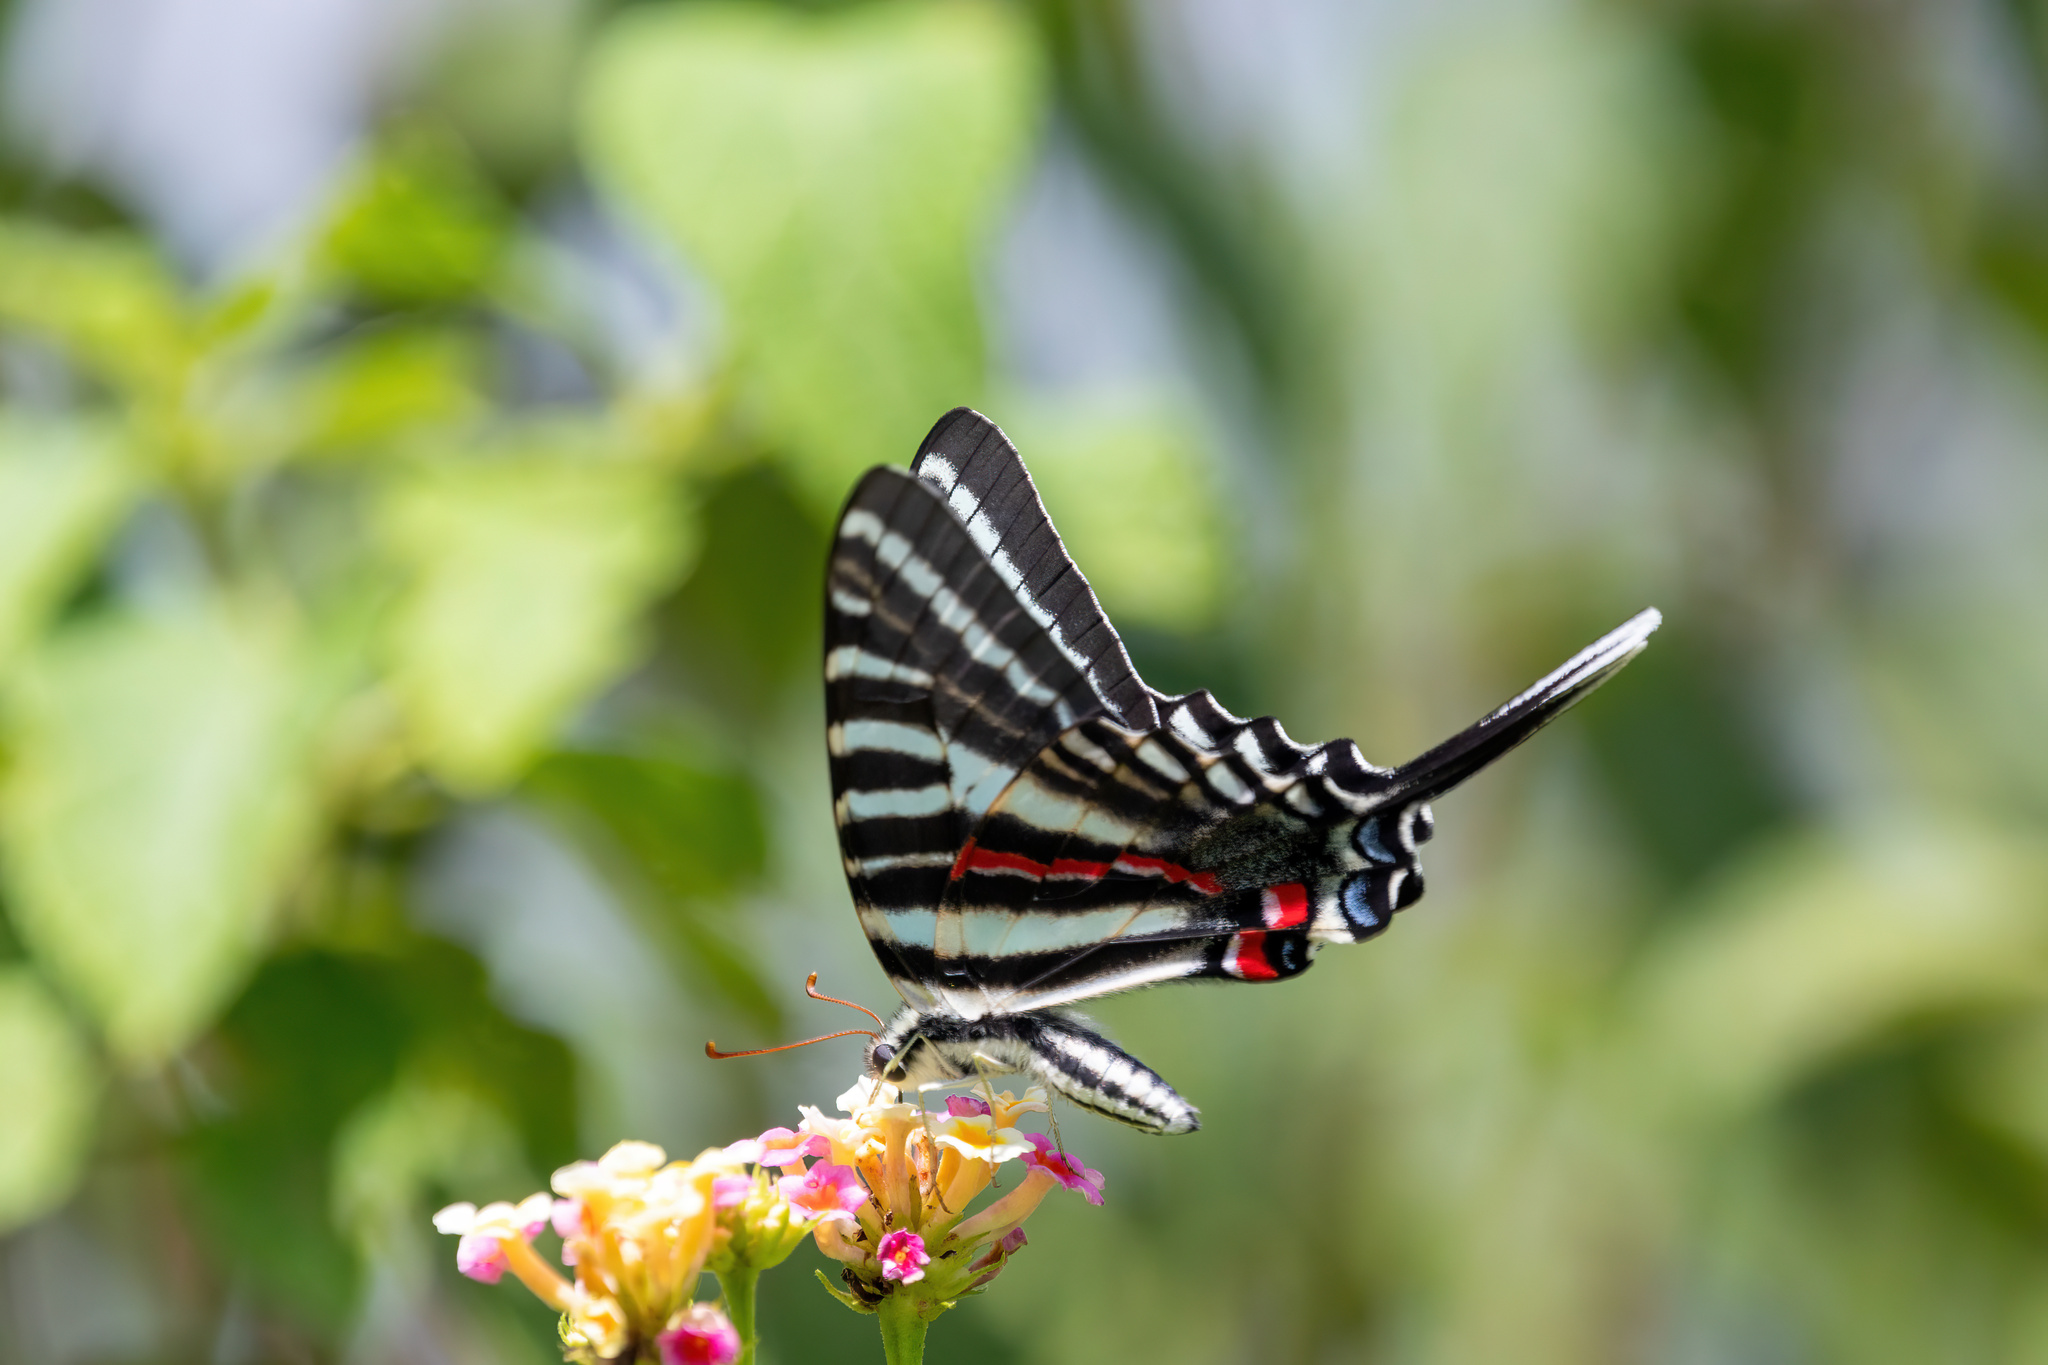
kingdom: Animalia
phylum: Arthropoda
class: Insecta
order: Lepidoptera
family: Papilionidae
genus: Protographium
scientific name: Protographium marcellus
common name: Zebra swallowtail
